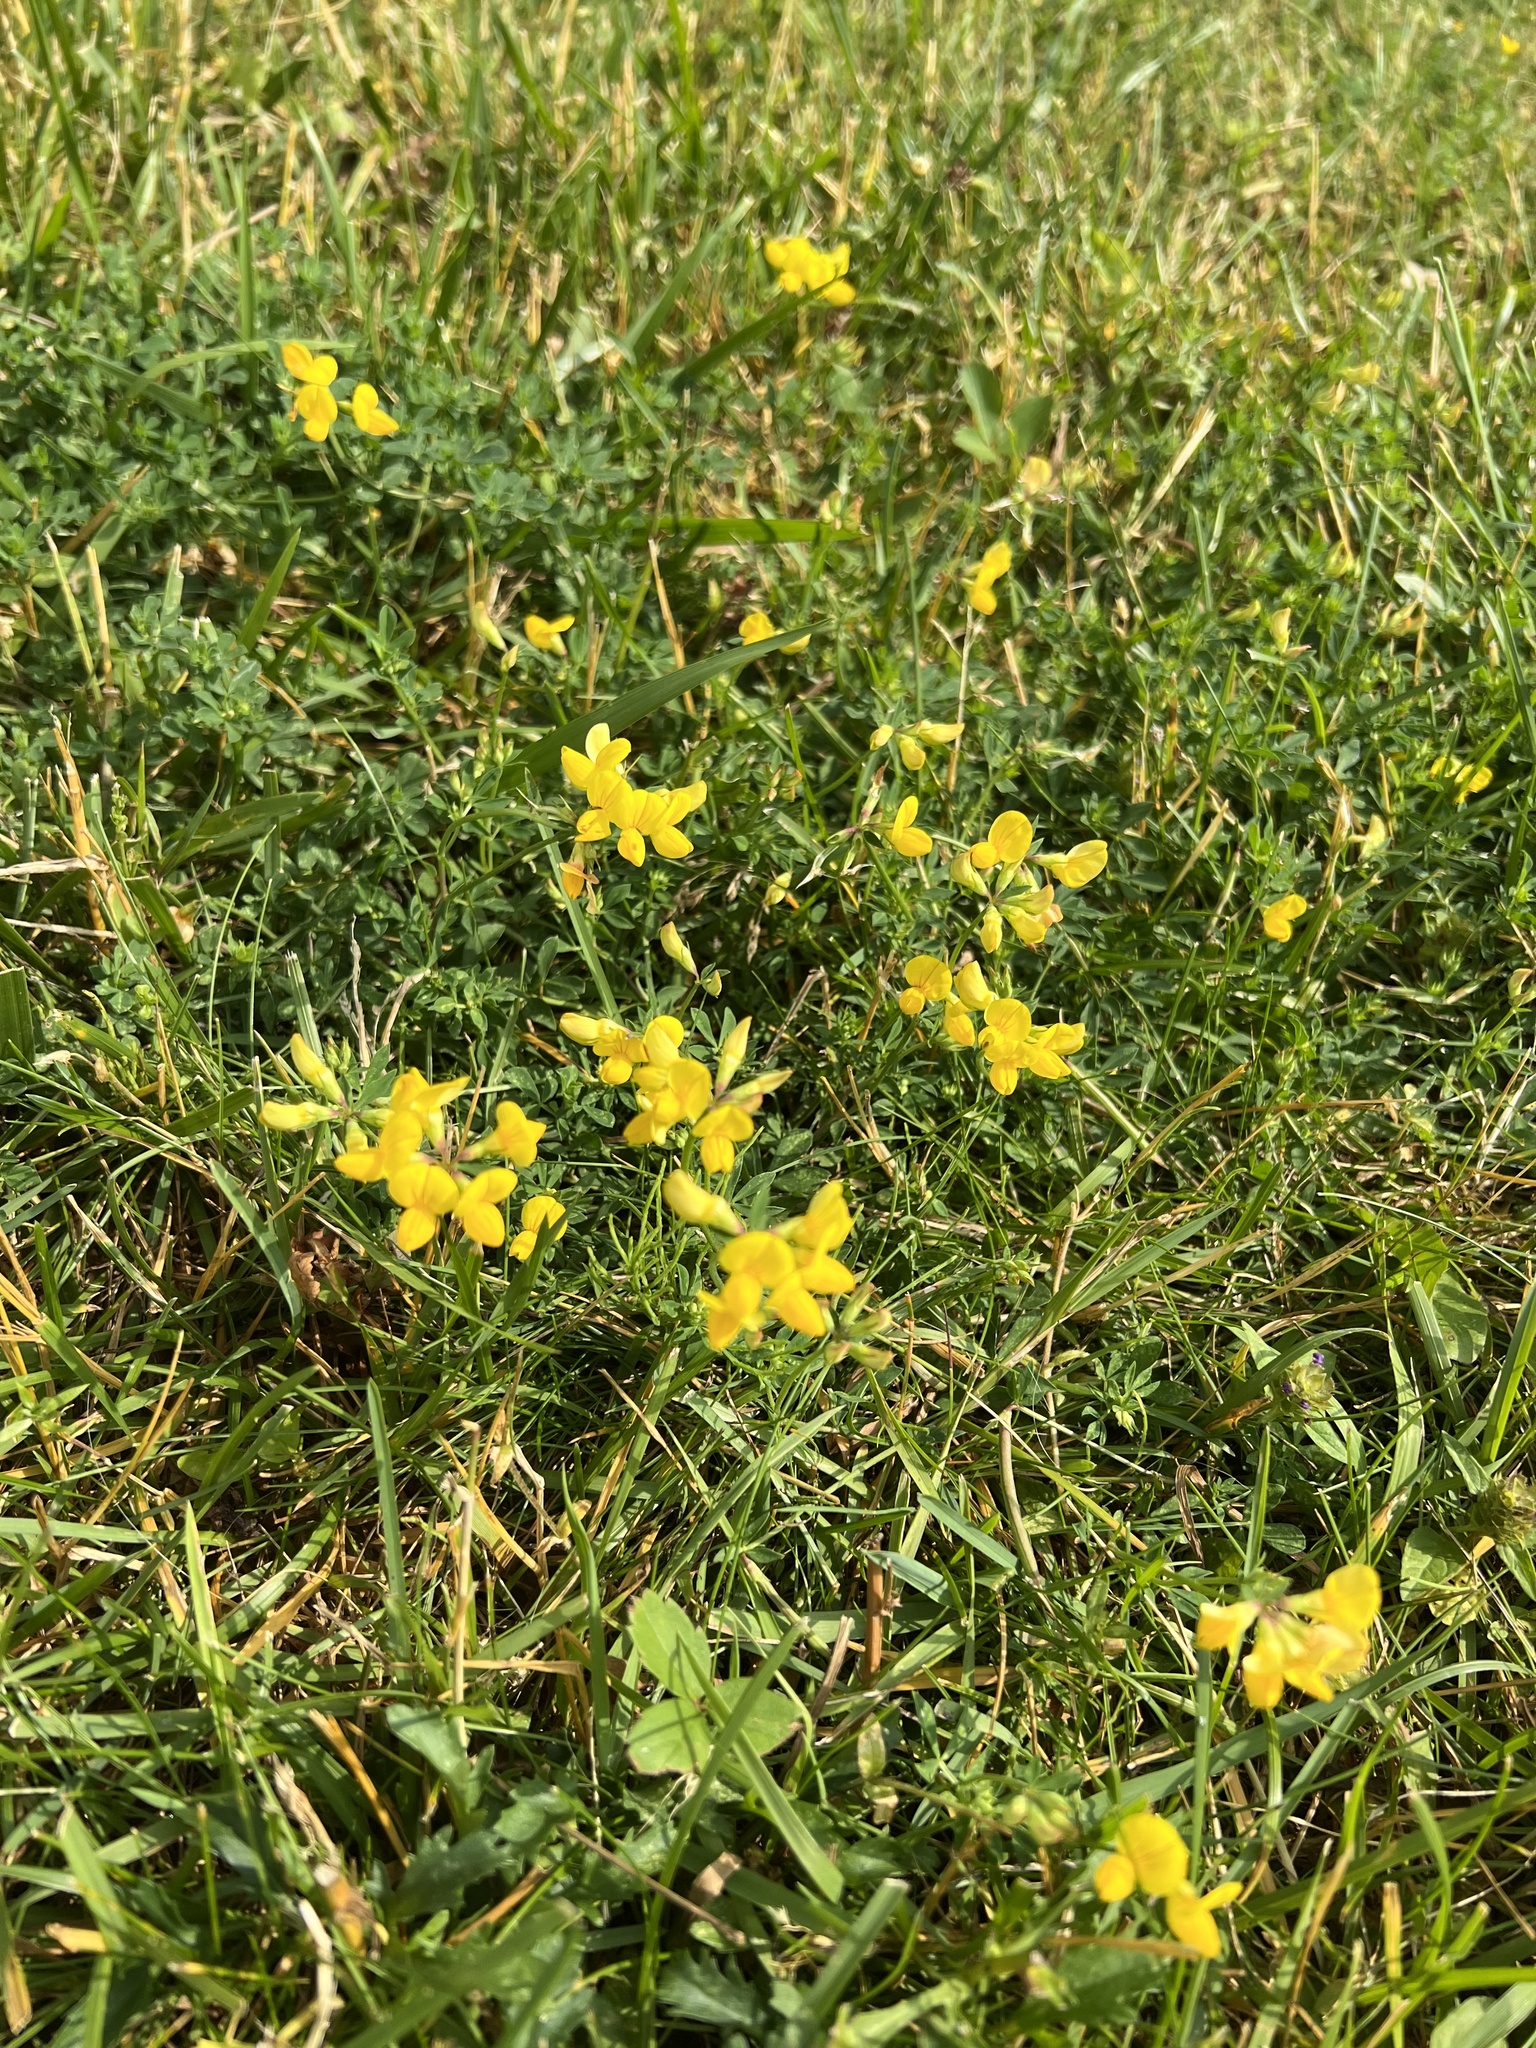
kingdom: Plantae
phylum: Tracheophyta
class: Magnoliopsida
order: Fabales
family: Fabaceae
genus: Lotus
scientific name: Lotus corniculatus
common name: Common bird's-foot-trefoil
